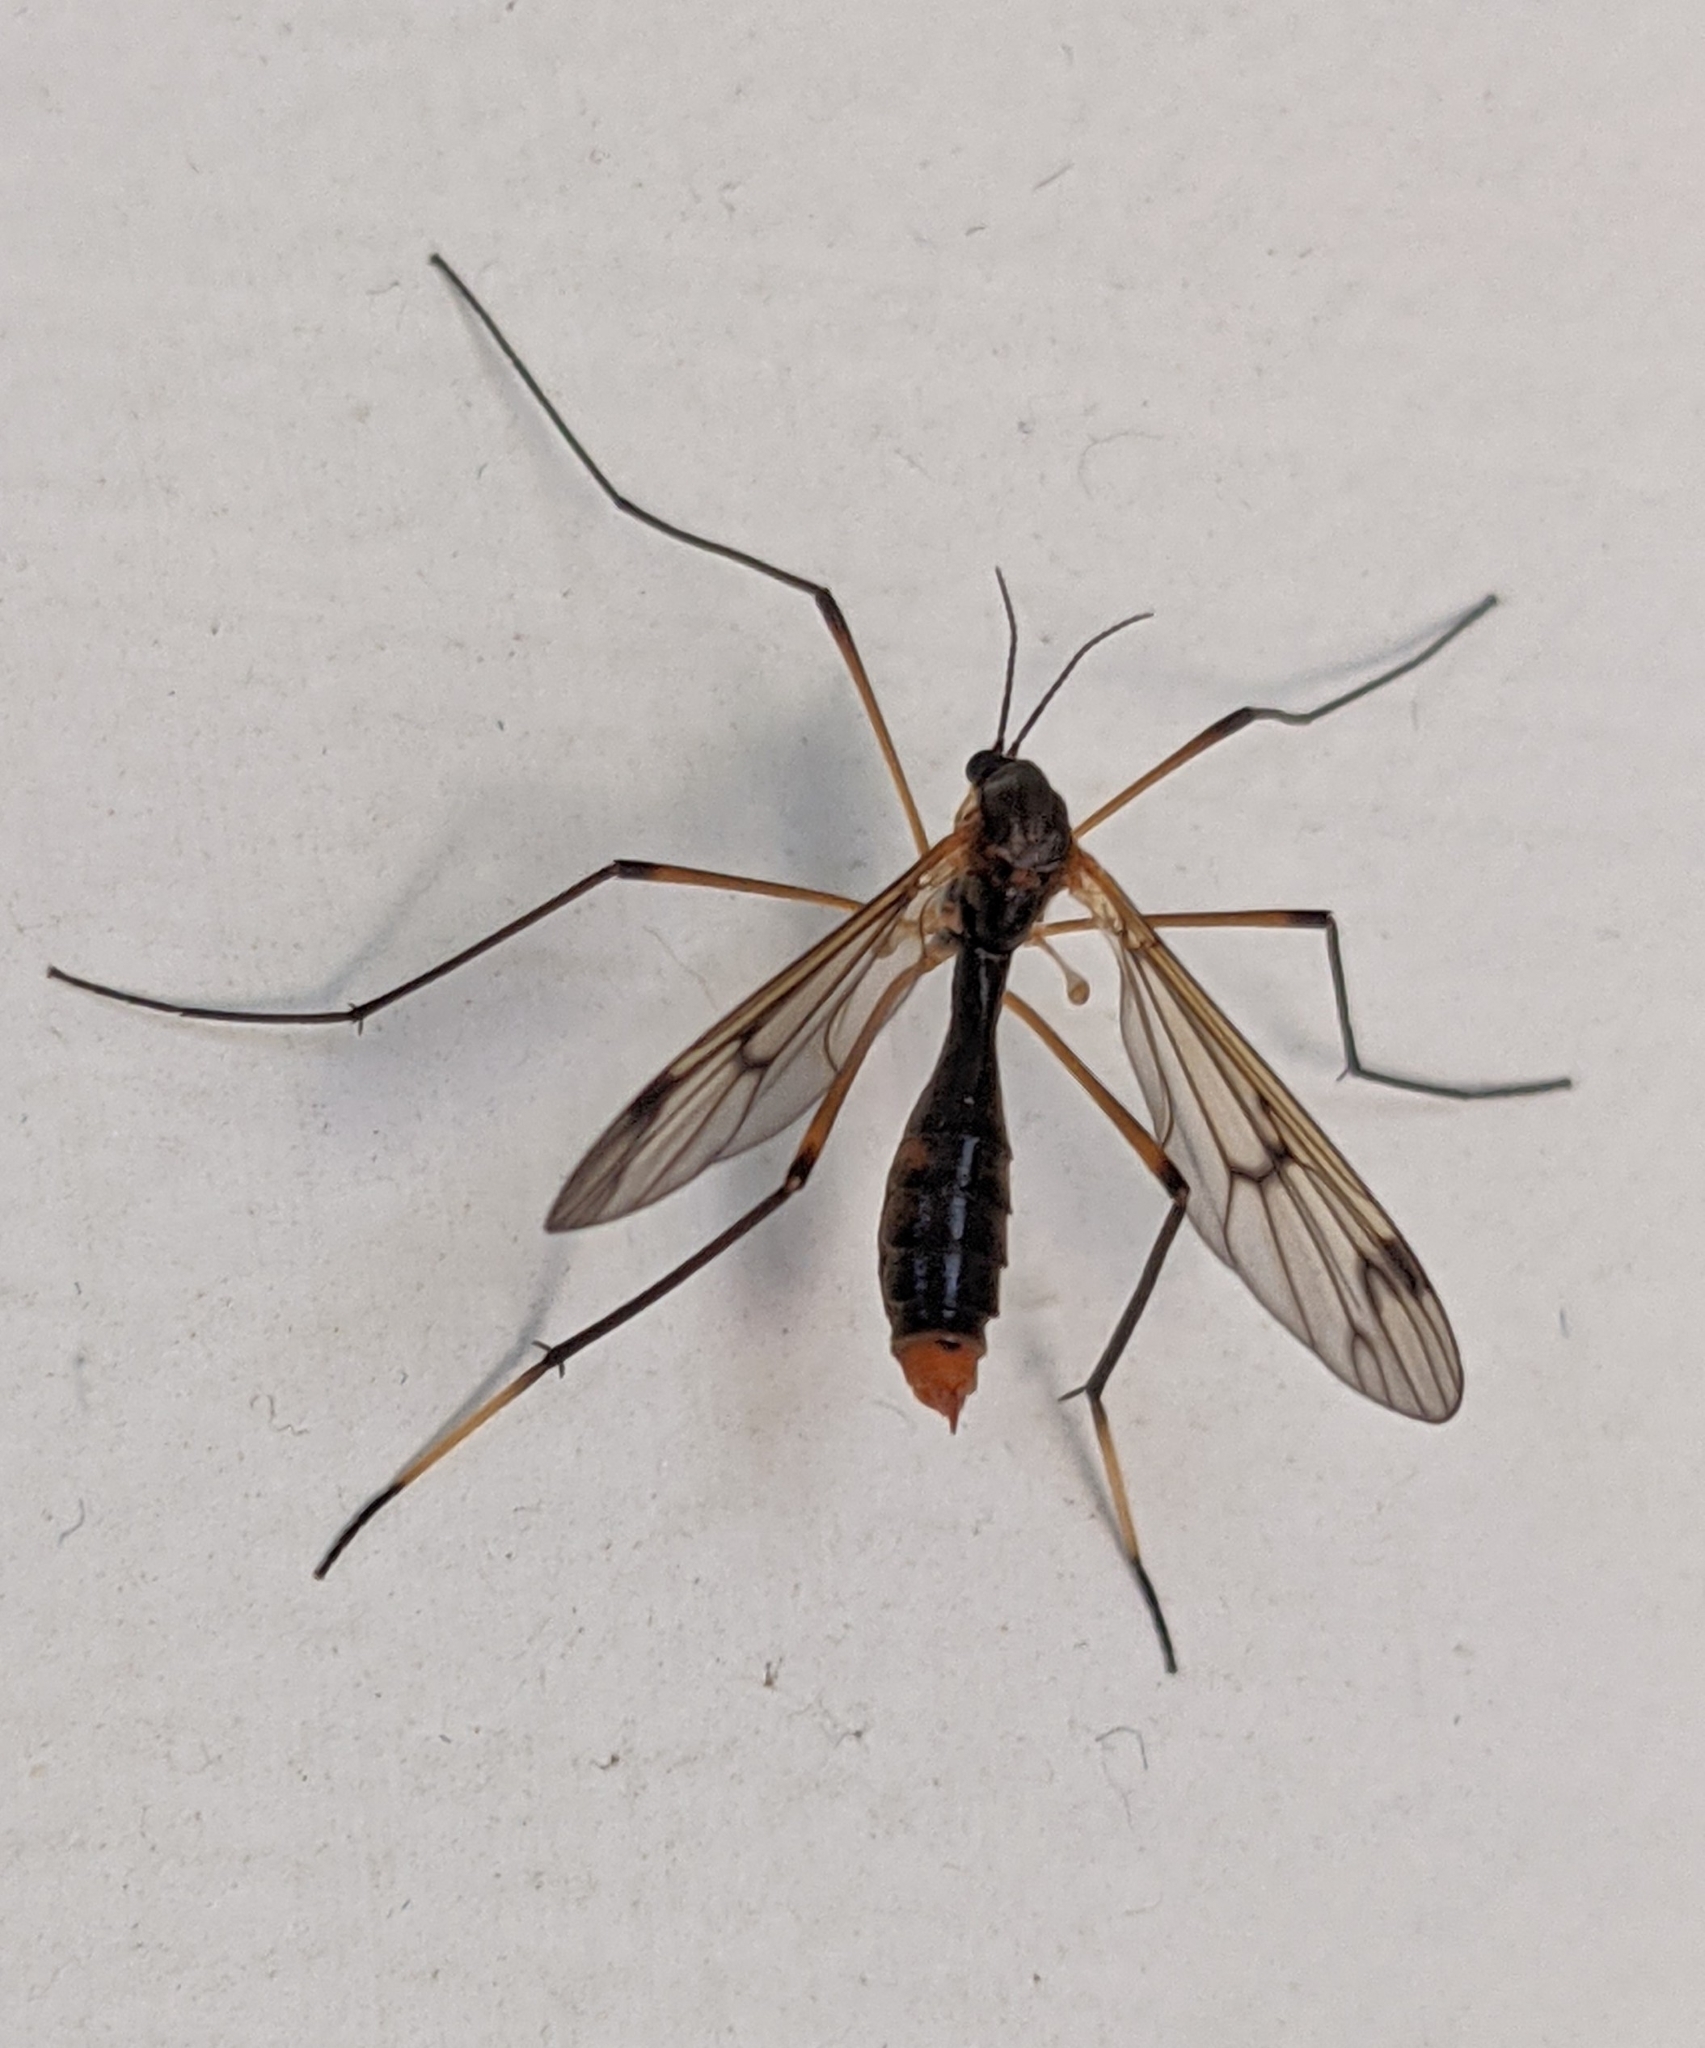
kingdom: Animalia
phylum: Arthropoda
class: Insecta
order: Diptera
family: Ptychopteridae
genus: Ptychoptera
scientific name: Ptychoptera albimanus
